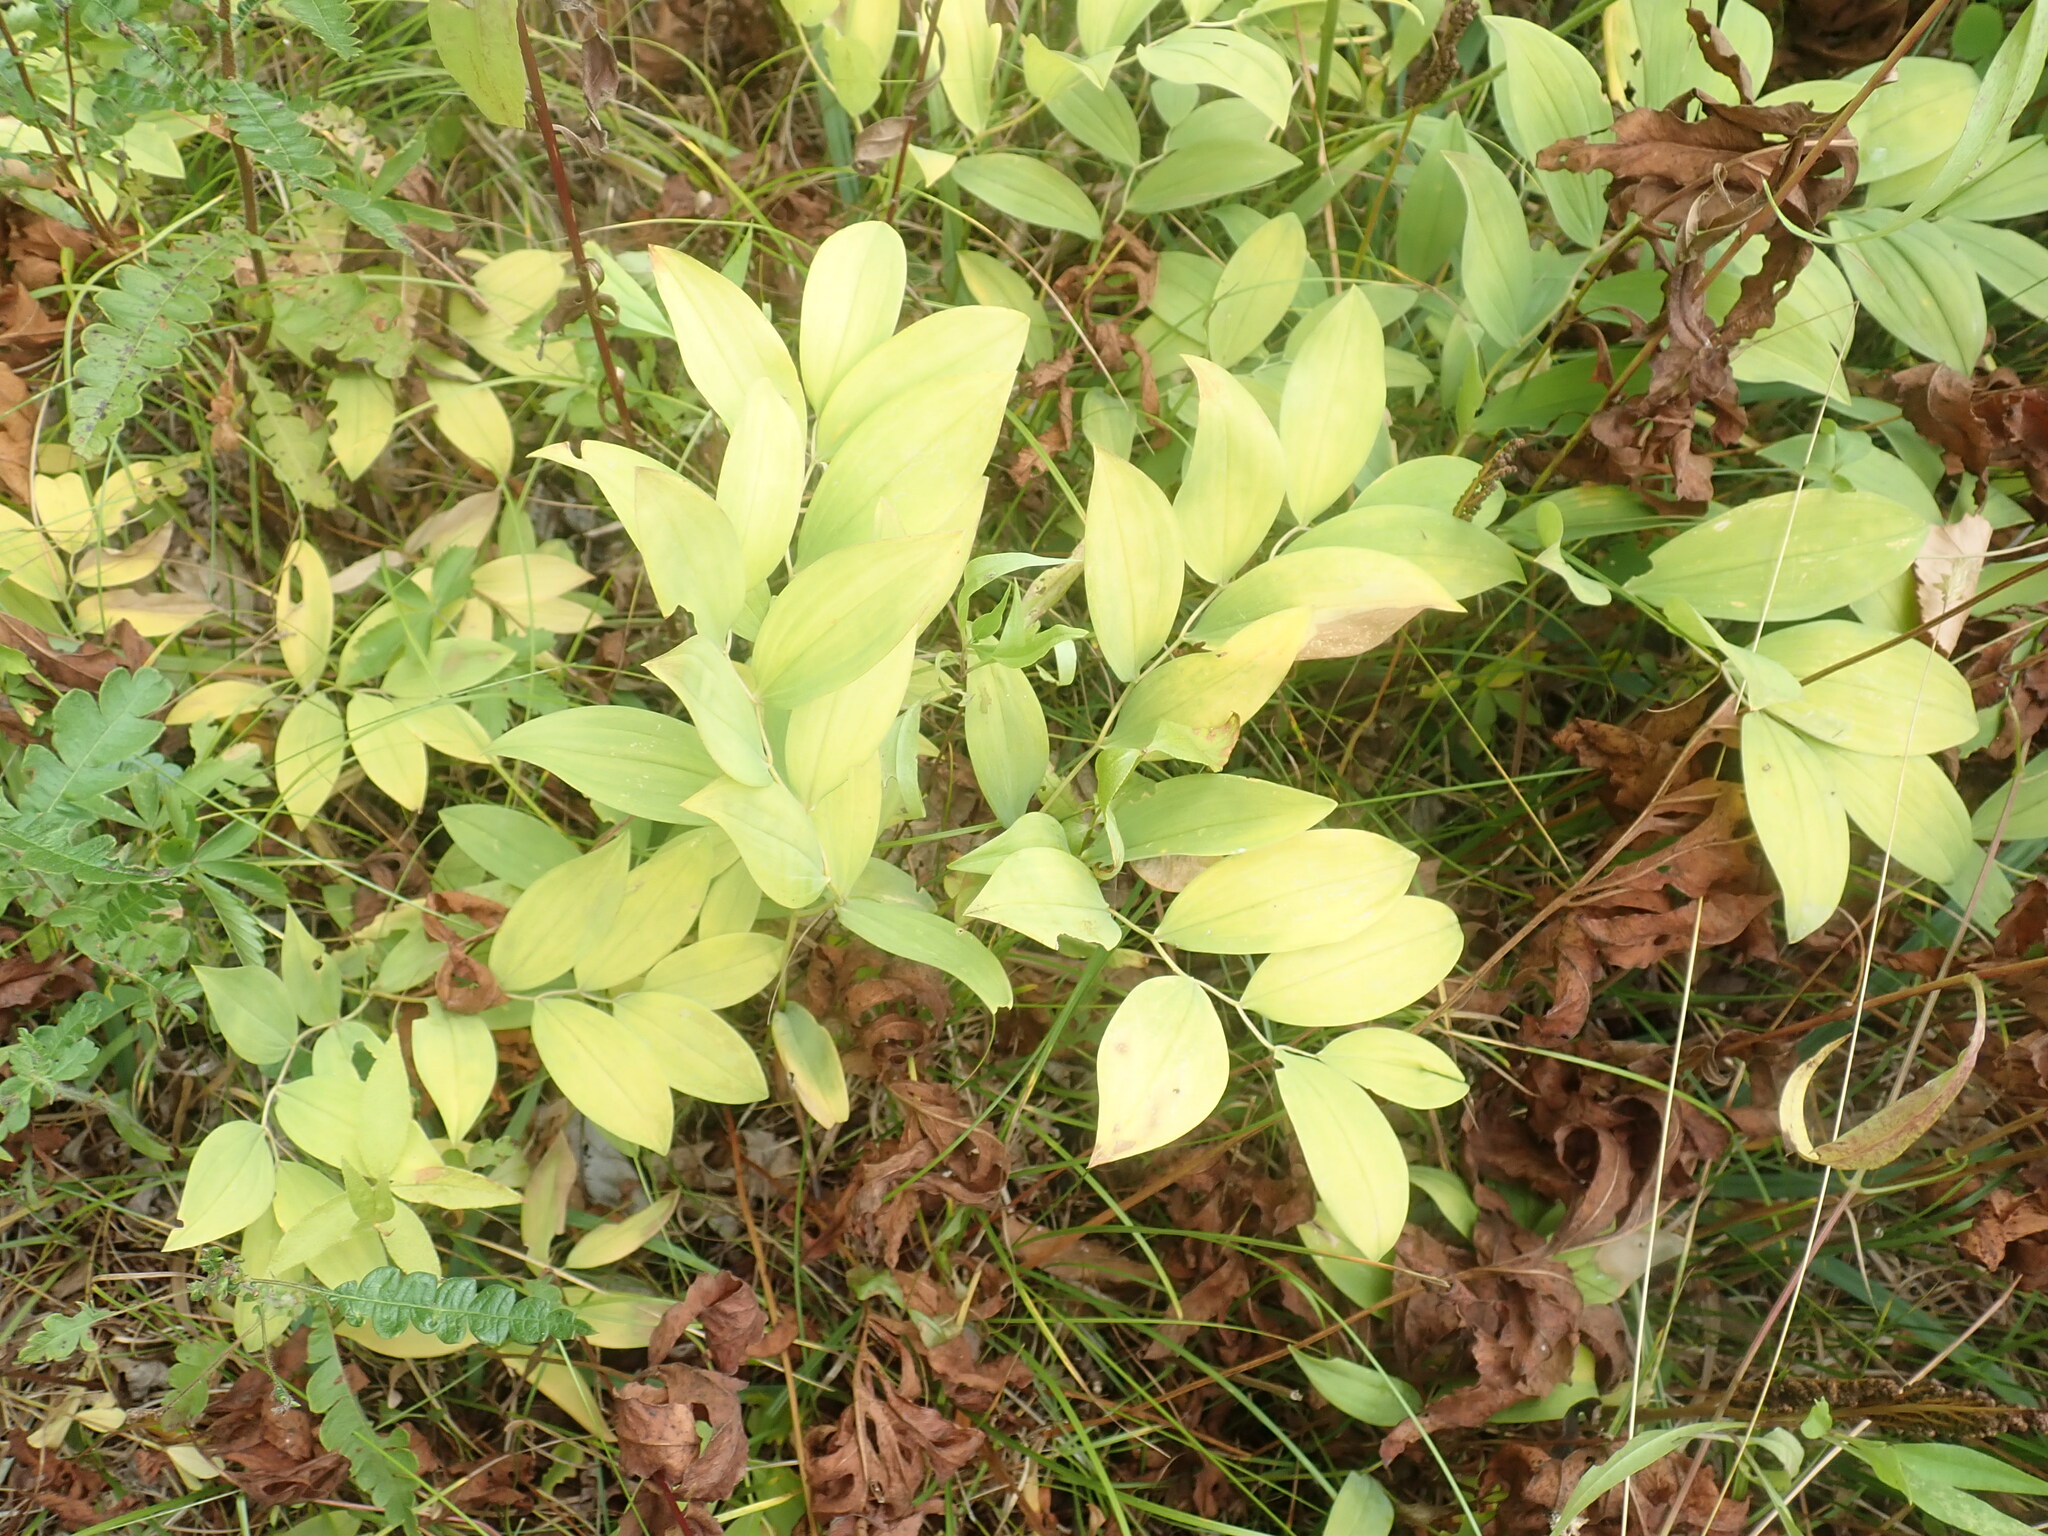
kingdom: Plantae
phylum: Tracheophyta
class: Liliopsida
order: Liliales
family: Colchicaceae
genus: Uvularia
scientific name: Uvularia sessilifolia
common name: Straw-lily
